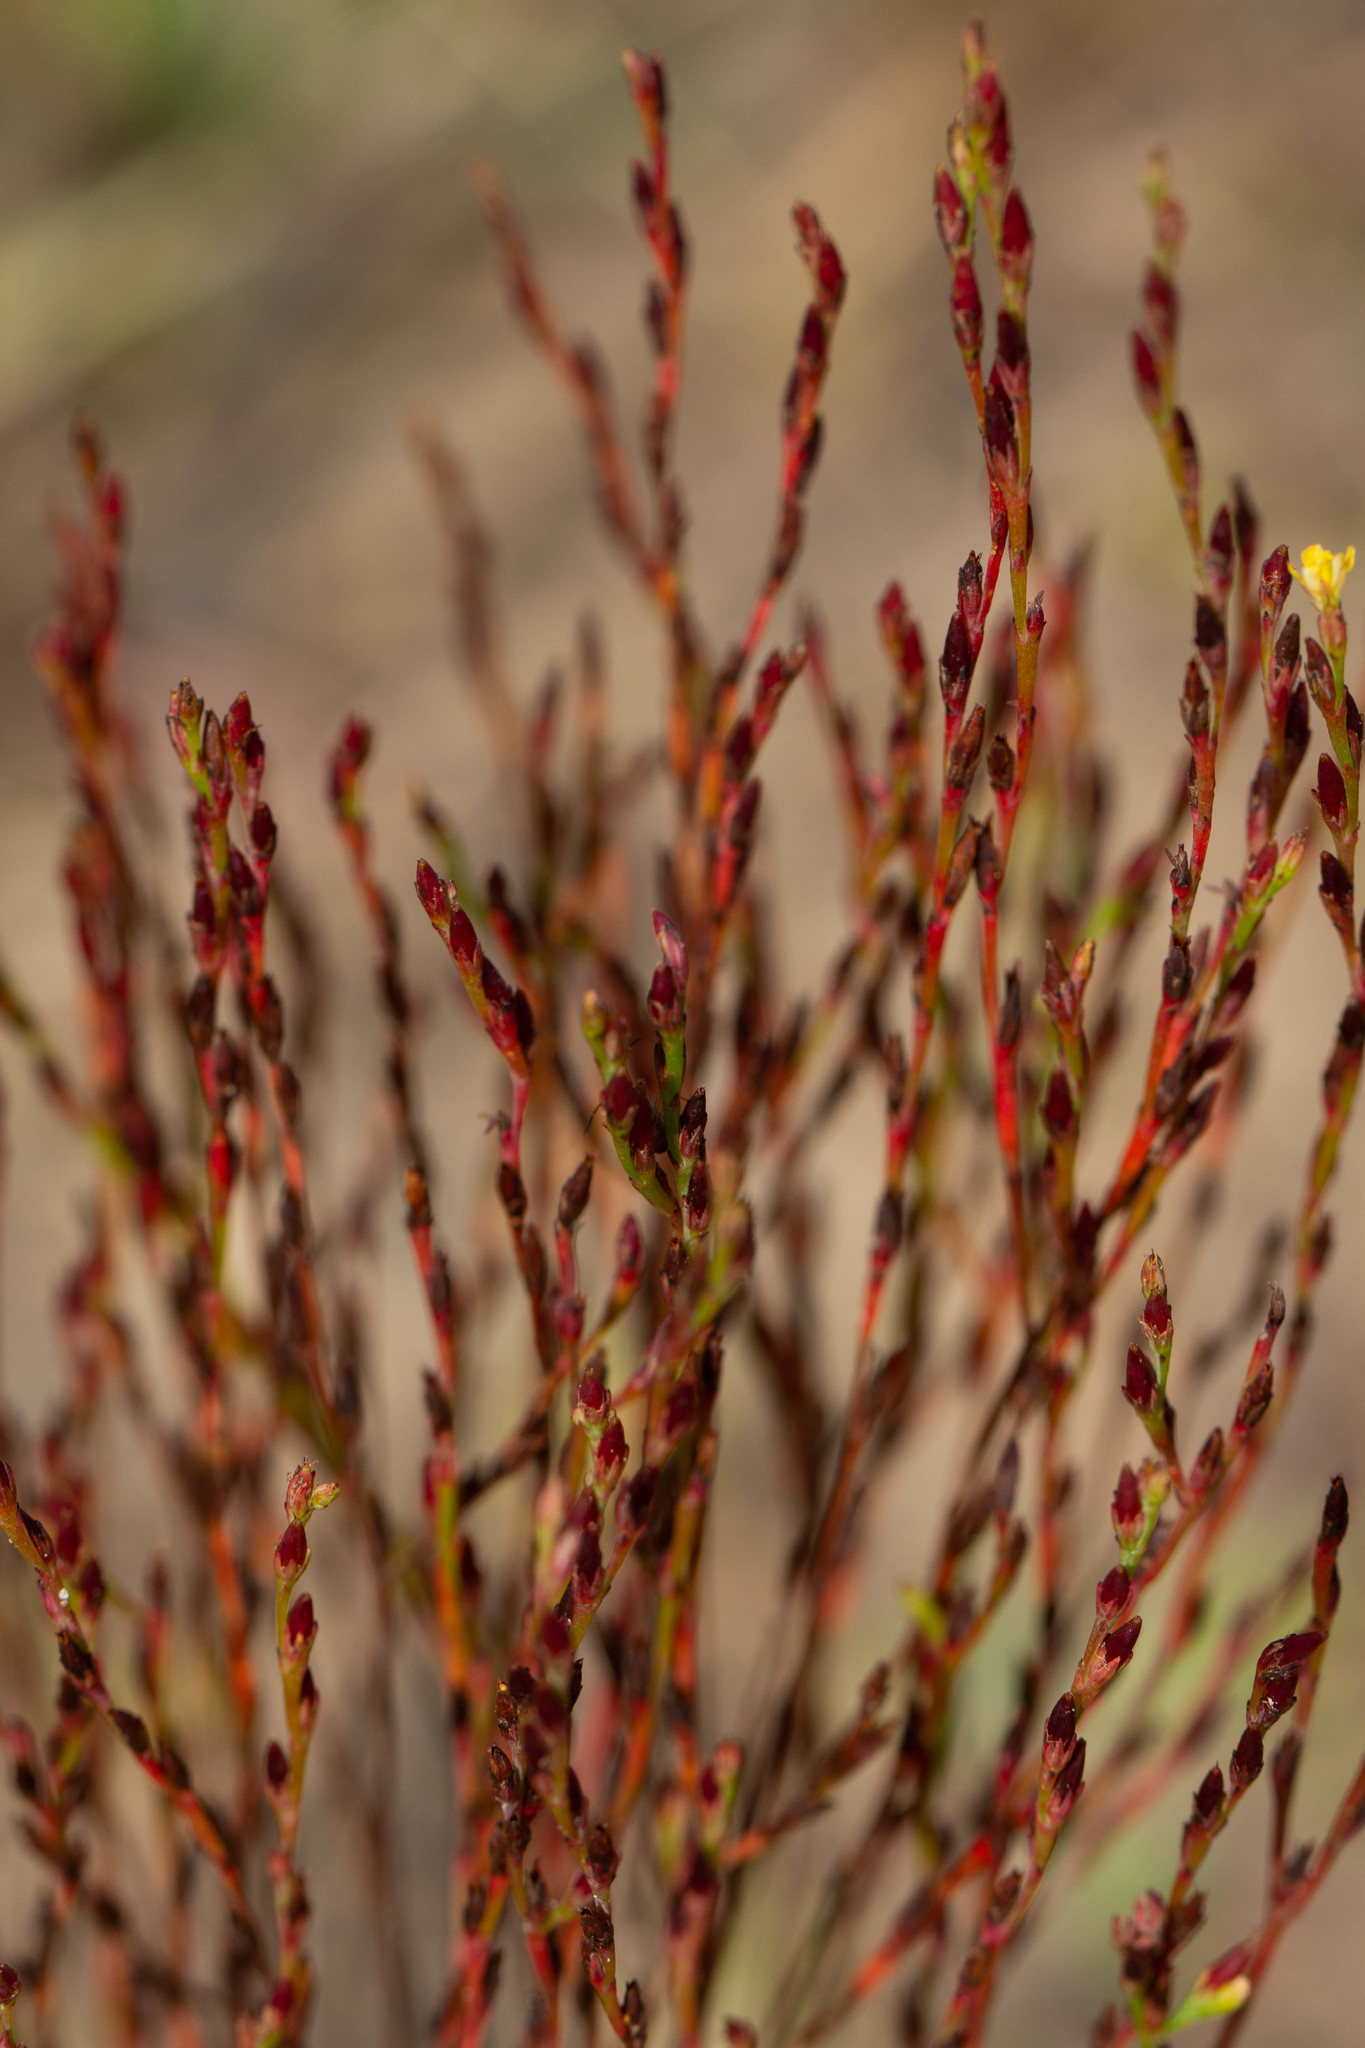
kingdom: Plantae
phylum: Tracheophyta
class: Magnoliopsida
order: Malpighiales
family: Hypericaceae
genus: Hypericum
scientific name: Hypericum gentianoides
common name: Gentian-leaved st. john's-wort
